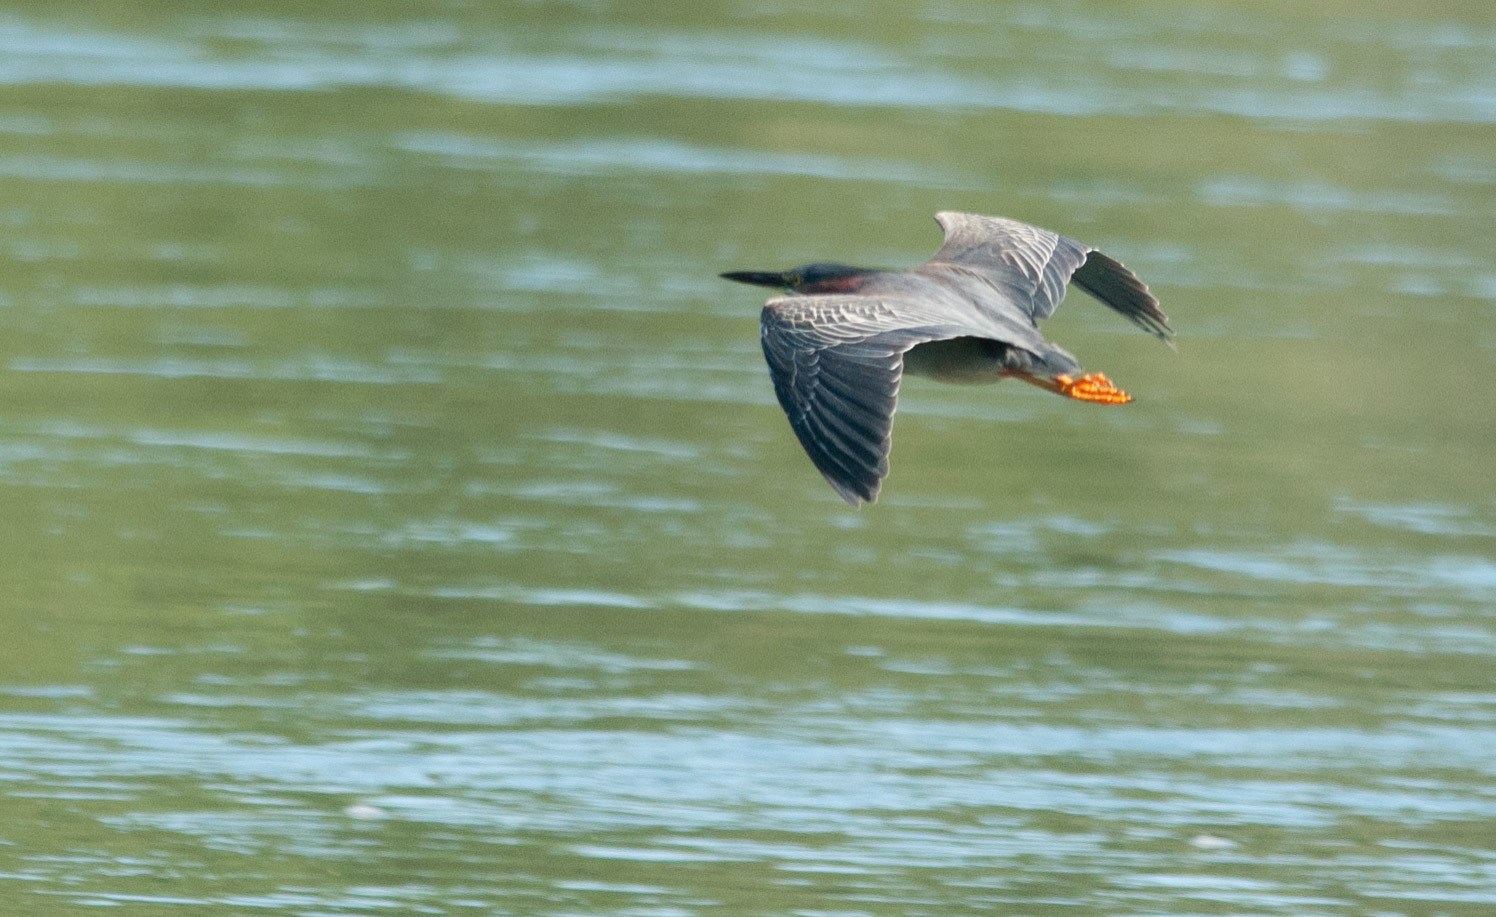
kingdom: Animalia
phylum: Chordata
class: Aves
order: Pelecaniformes
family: Ardeidae
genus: Butorides
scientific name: Butorides virescens
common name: Green heron
